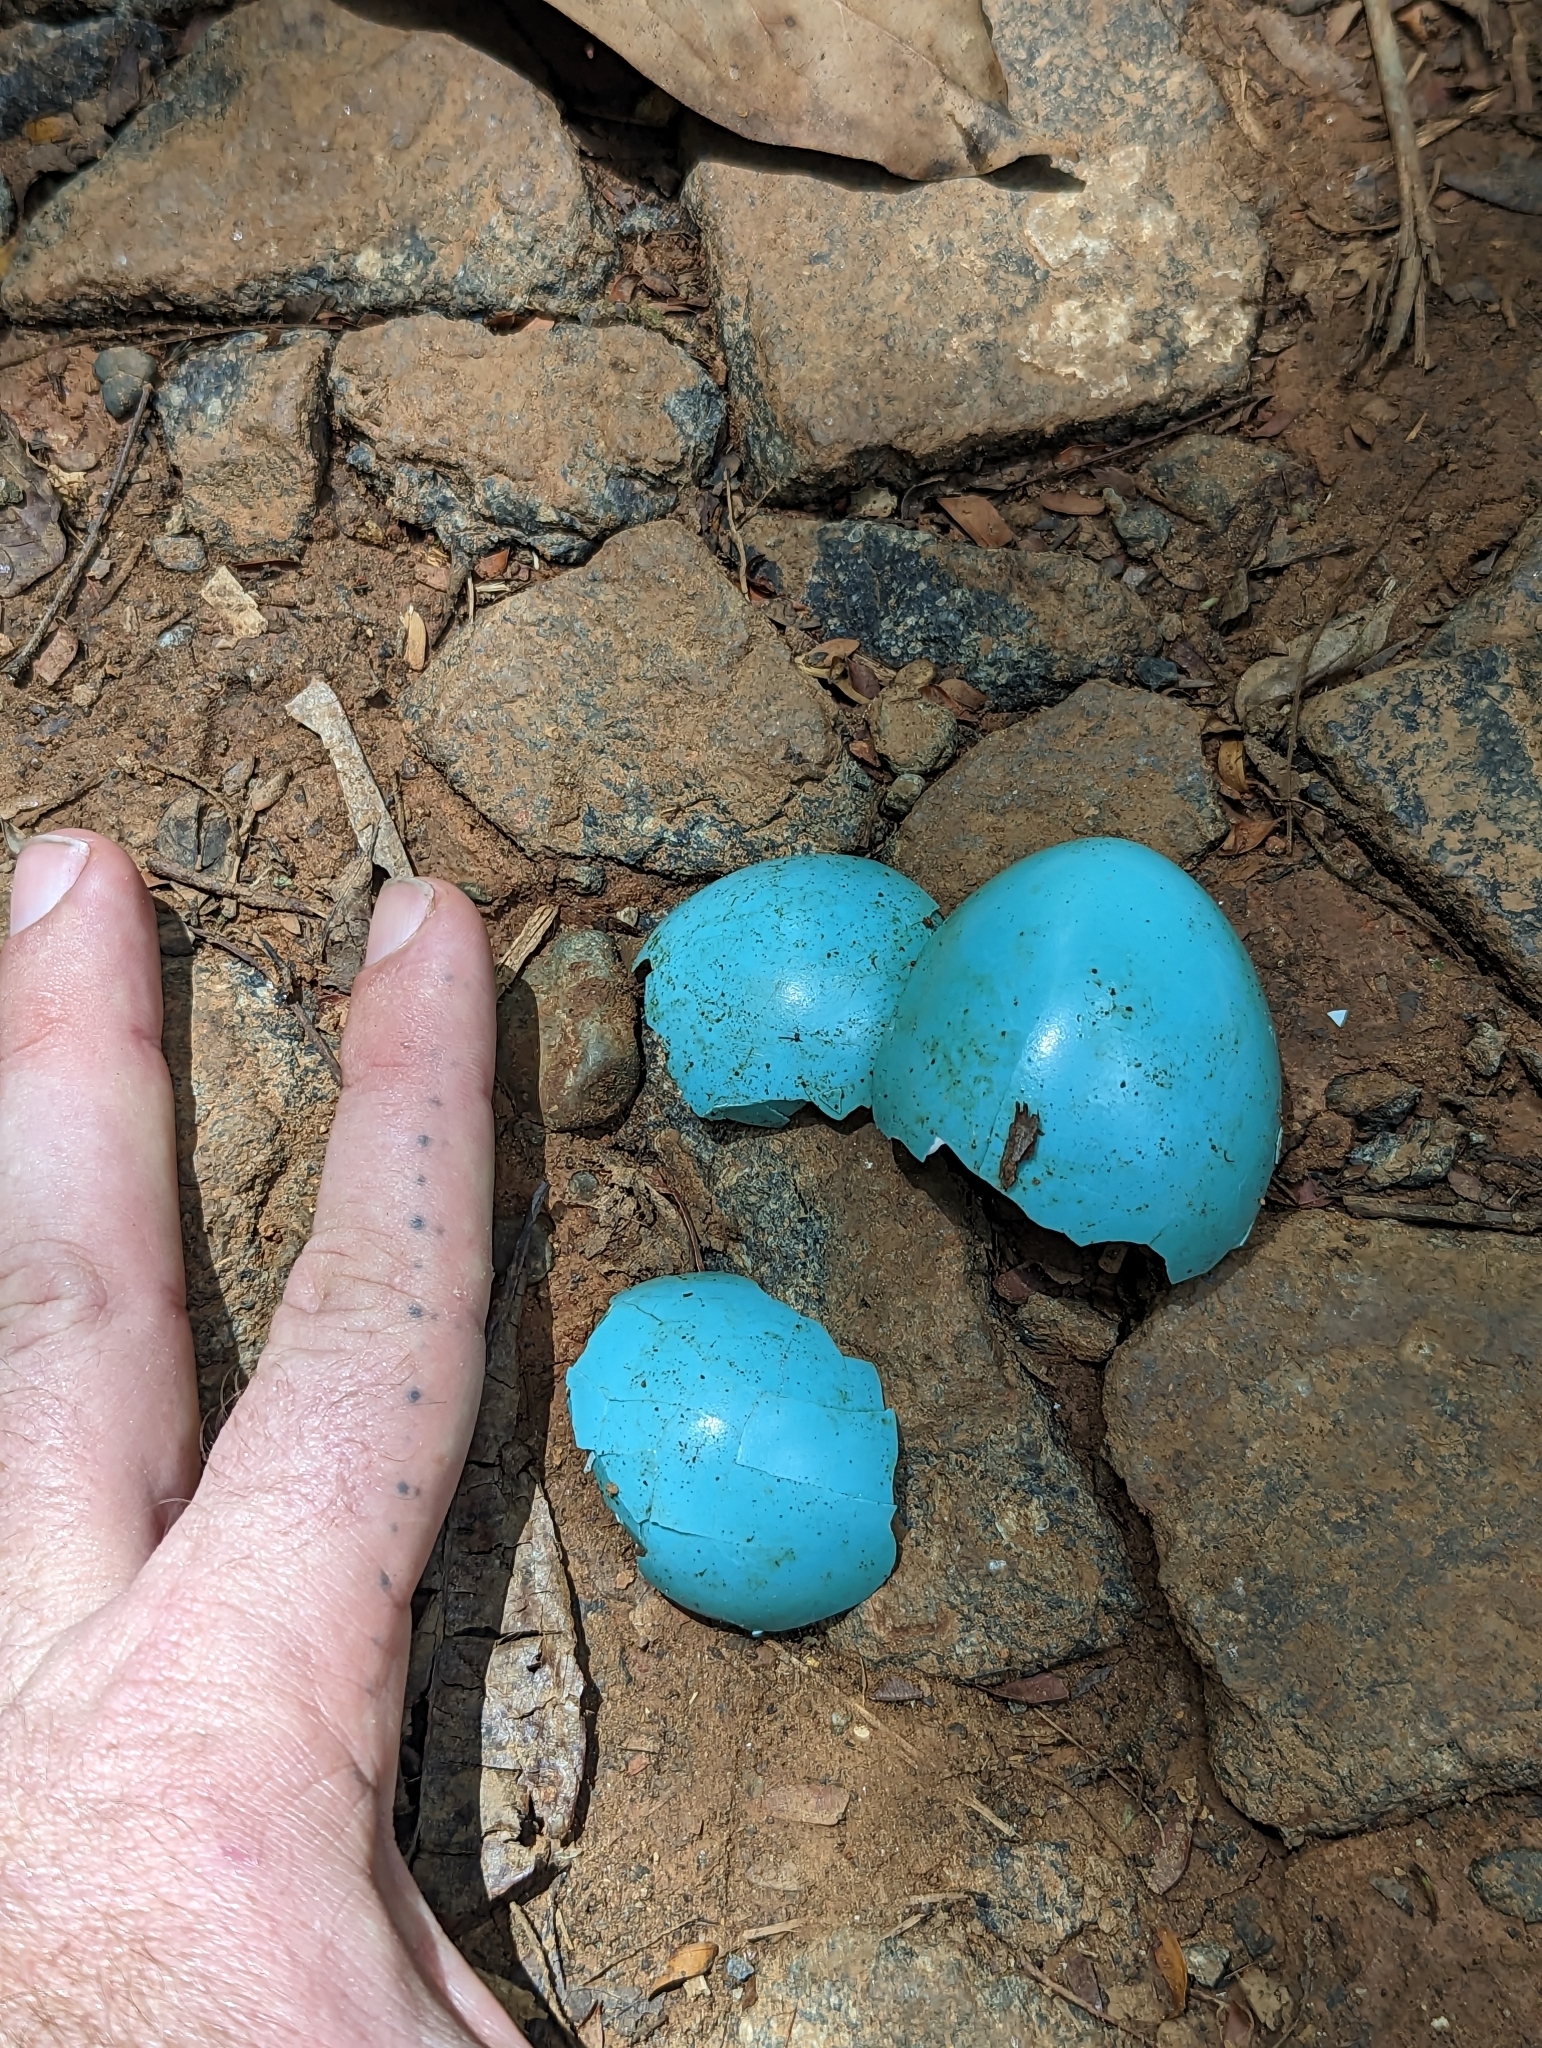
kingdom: Animalia
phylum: Chordata
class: Aves
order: Tinamiformes
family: Tinamidae
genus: Tinamus
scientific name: Tinamus major
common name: Great tinamou
